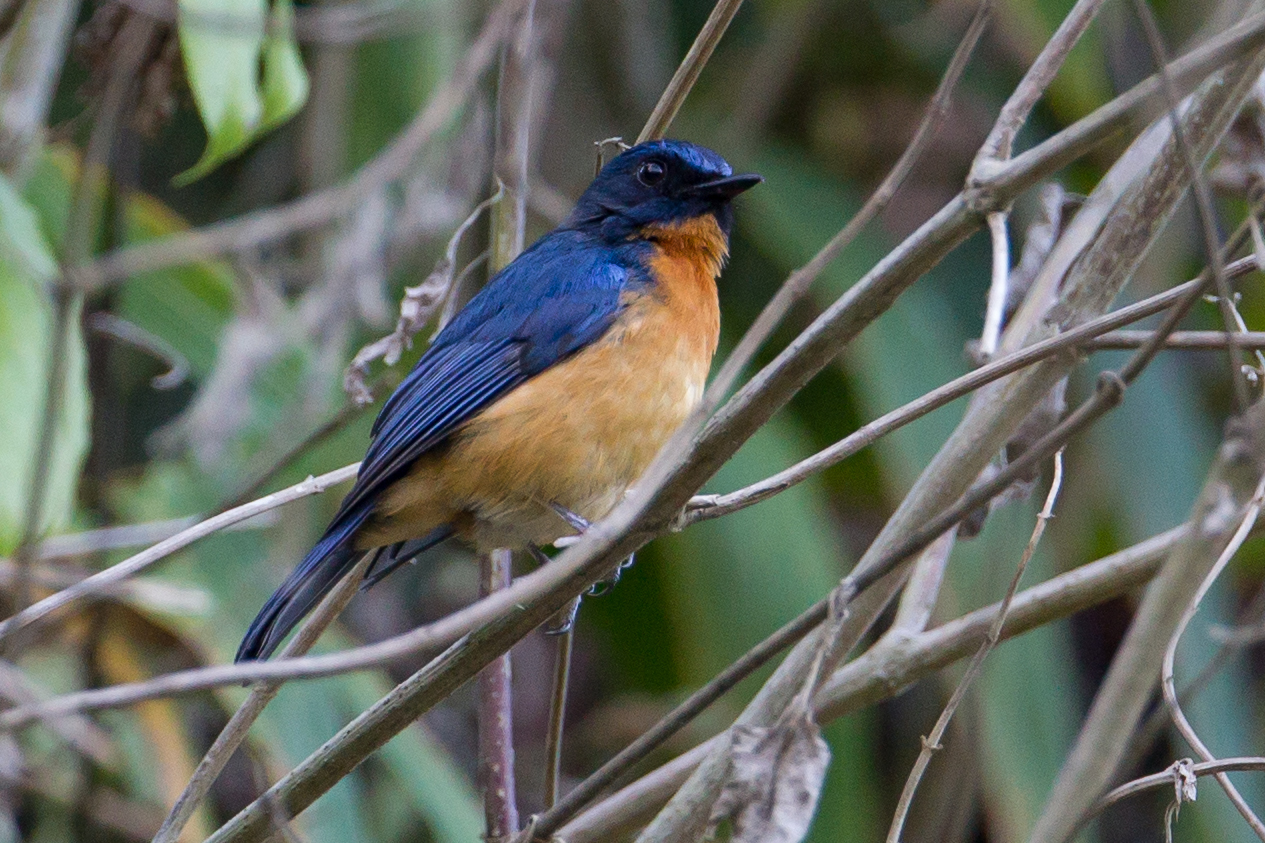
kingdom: Animalia
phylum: Chordata
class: Aves
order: Passeriformes
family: Muscicapidae
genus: Cyornis
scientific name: Cyornis omissus
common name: Sulawesi blue flycatcher
